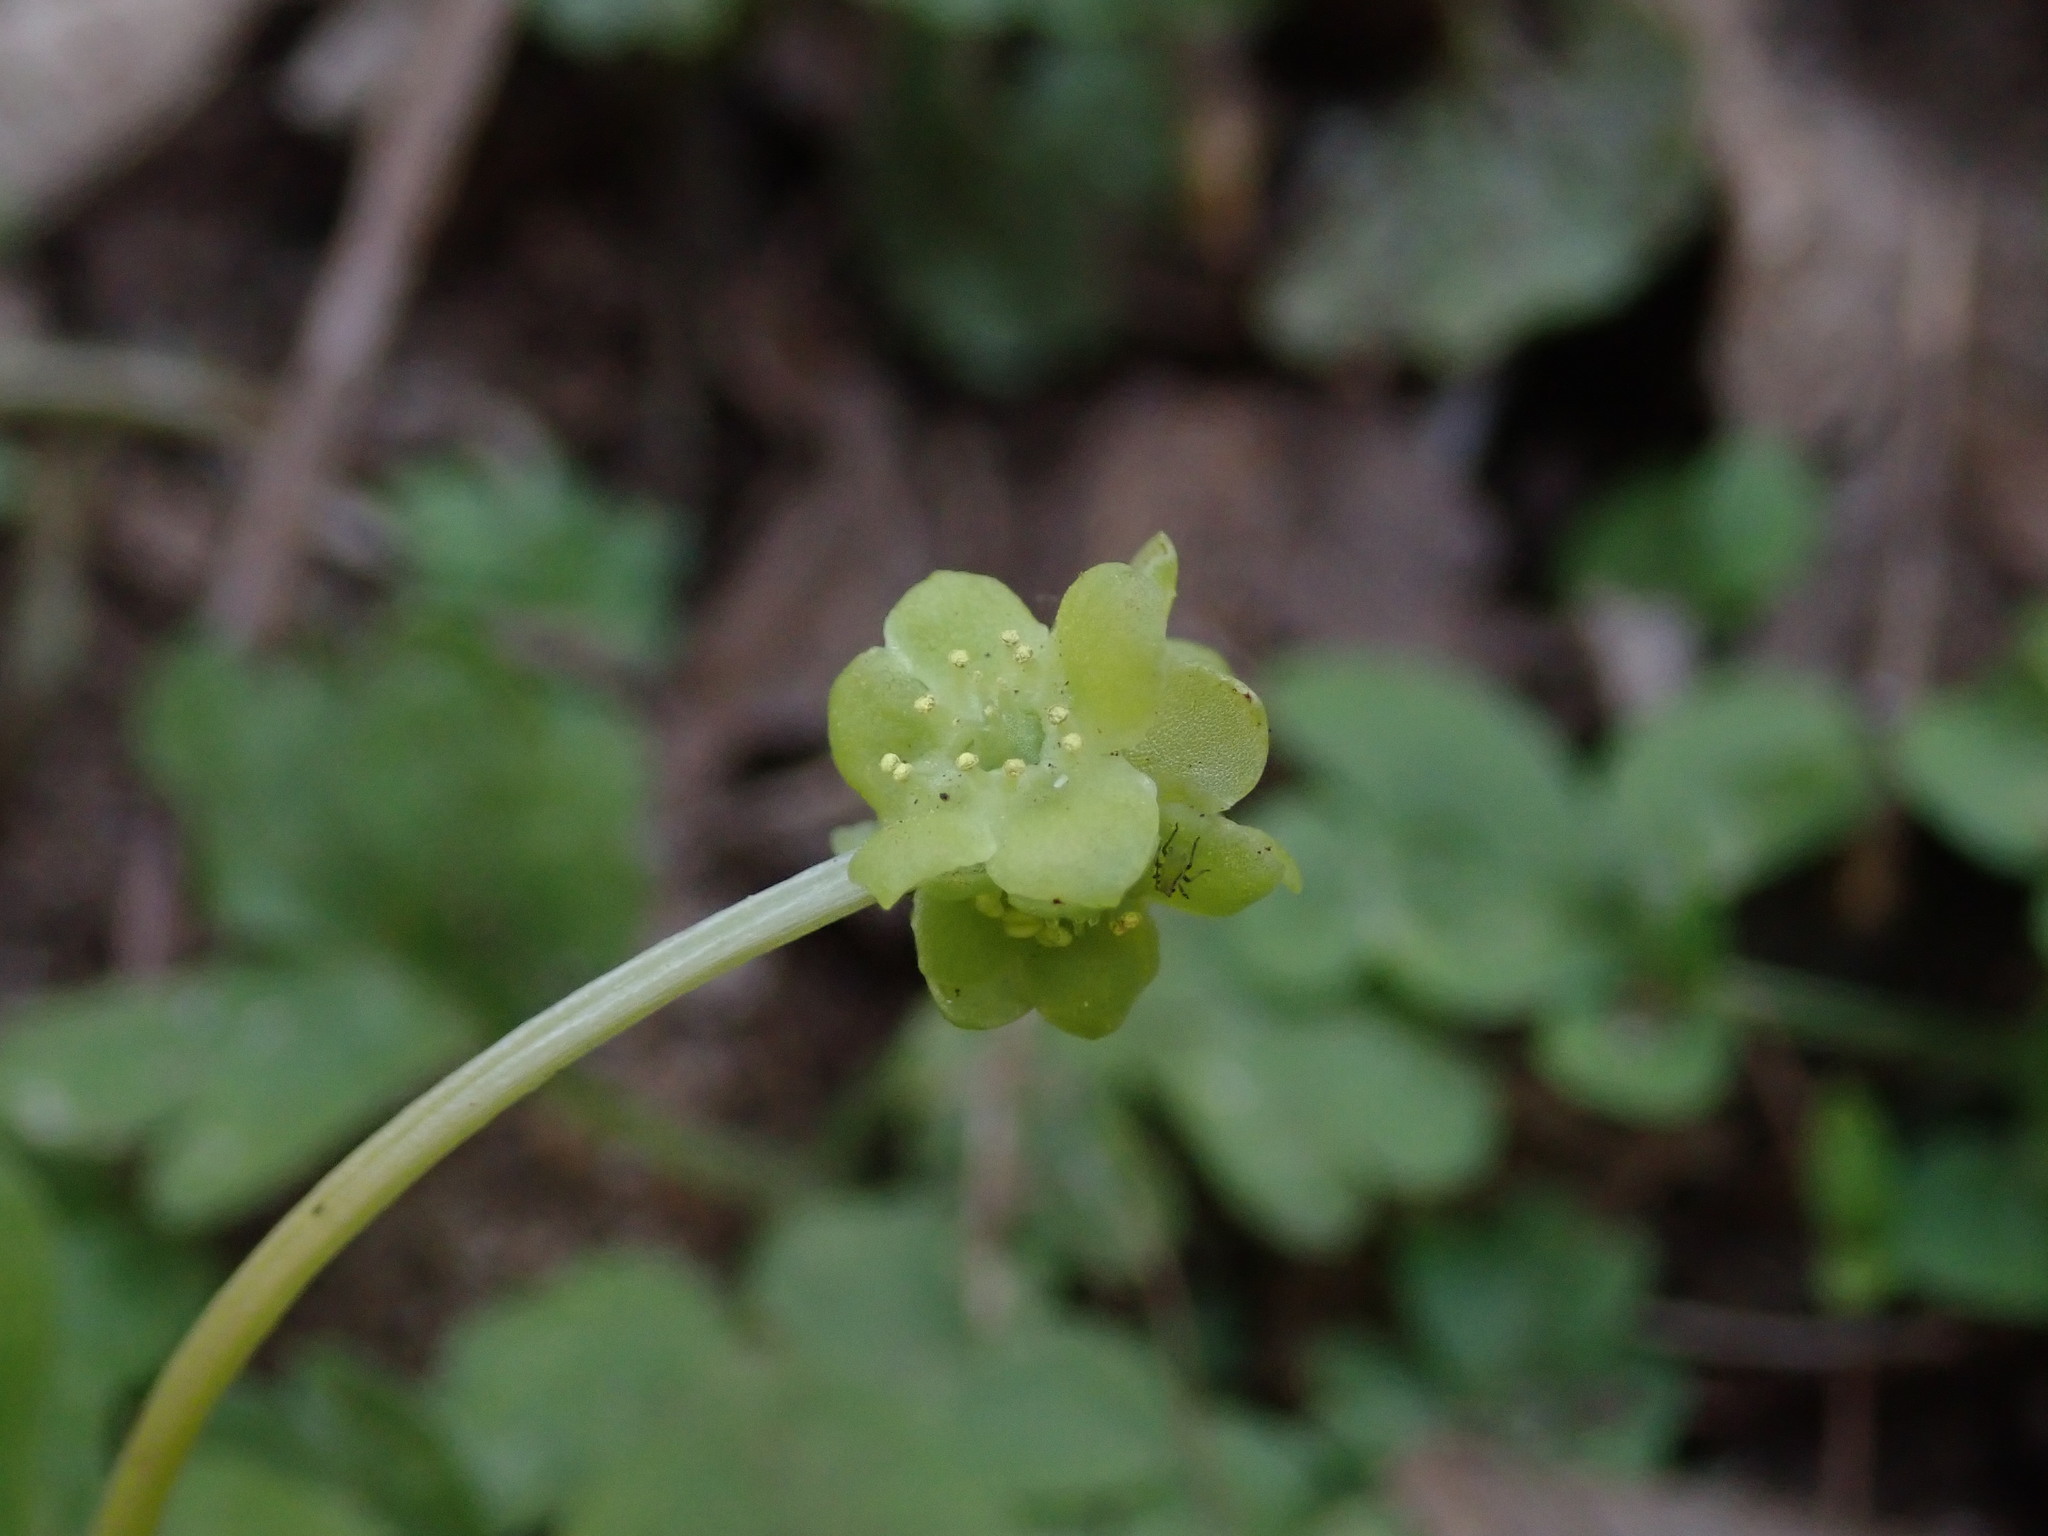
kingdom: Plantae
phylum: Tracheophyta
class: Magnoliopsida
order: Dipsacales
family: Viburnaceae
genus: Adoxa
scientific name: Adoxa moschatellina
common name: Moschatel
